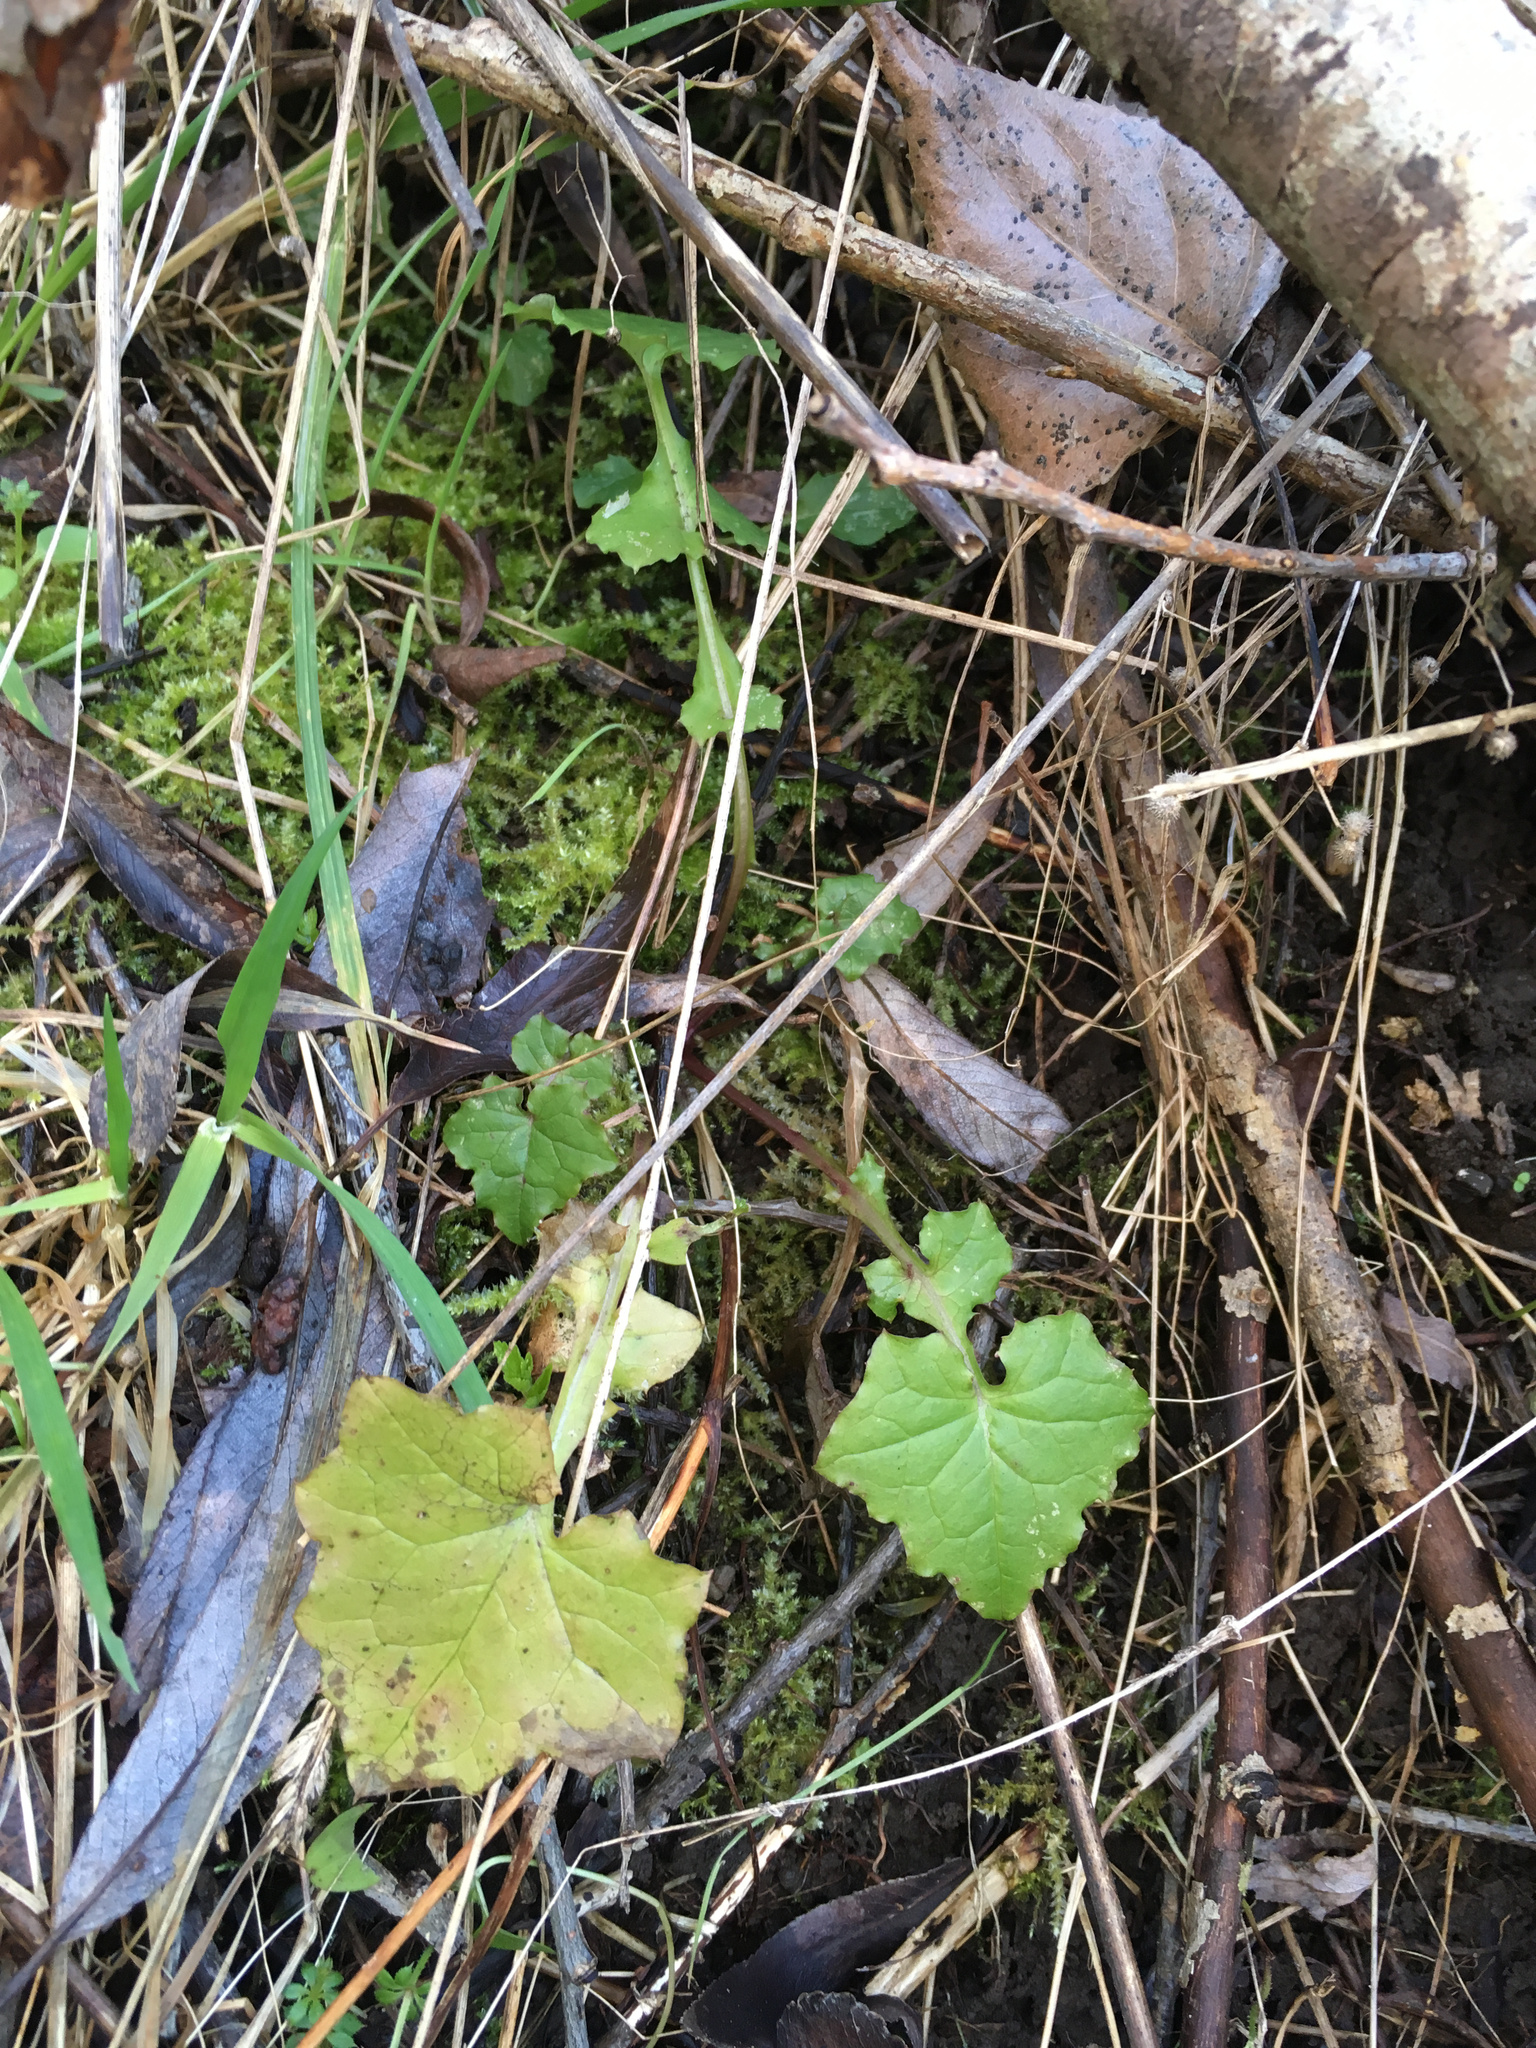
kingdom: Plantae
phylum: Tracheophyta
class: Magnoliopsida
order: Asterales
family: Asteraceae
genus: Mycelis
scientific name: Mycelis muralis
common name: Wall lettuce
